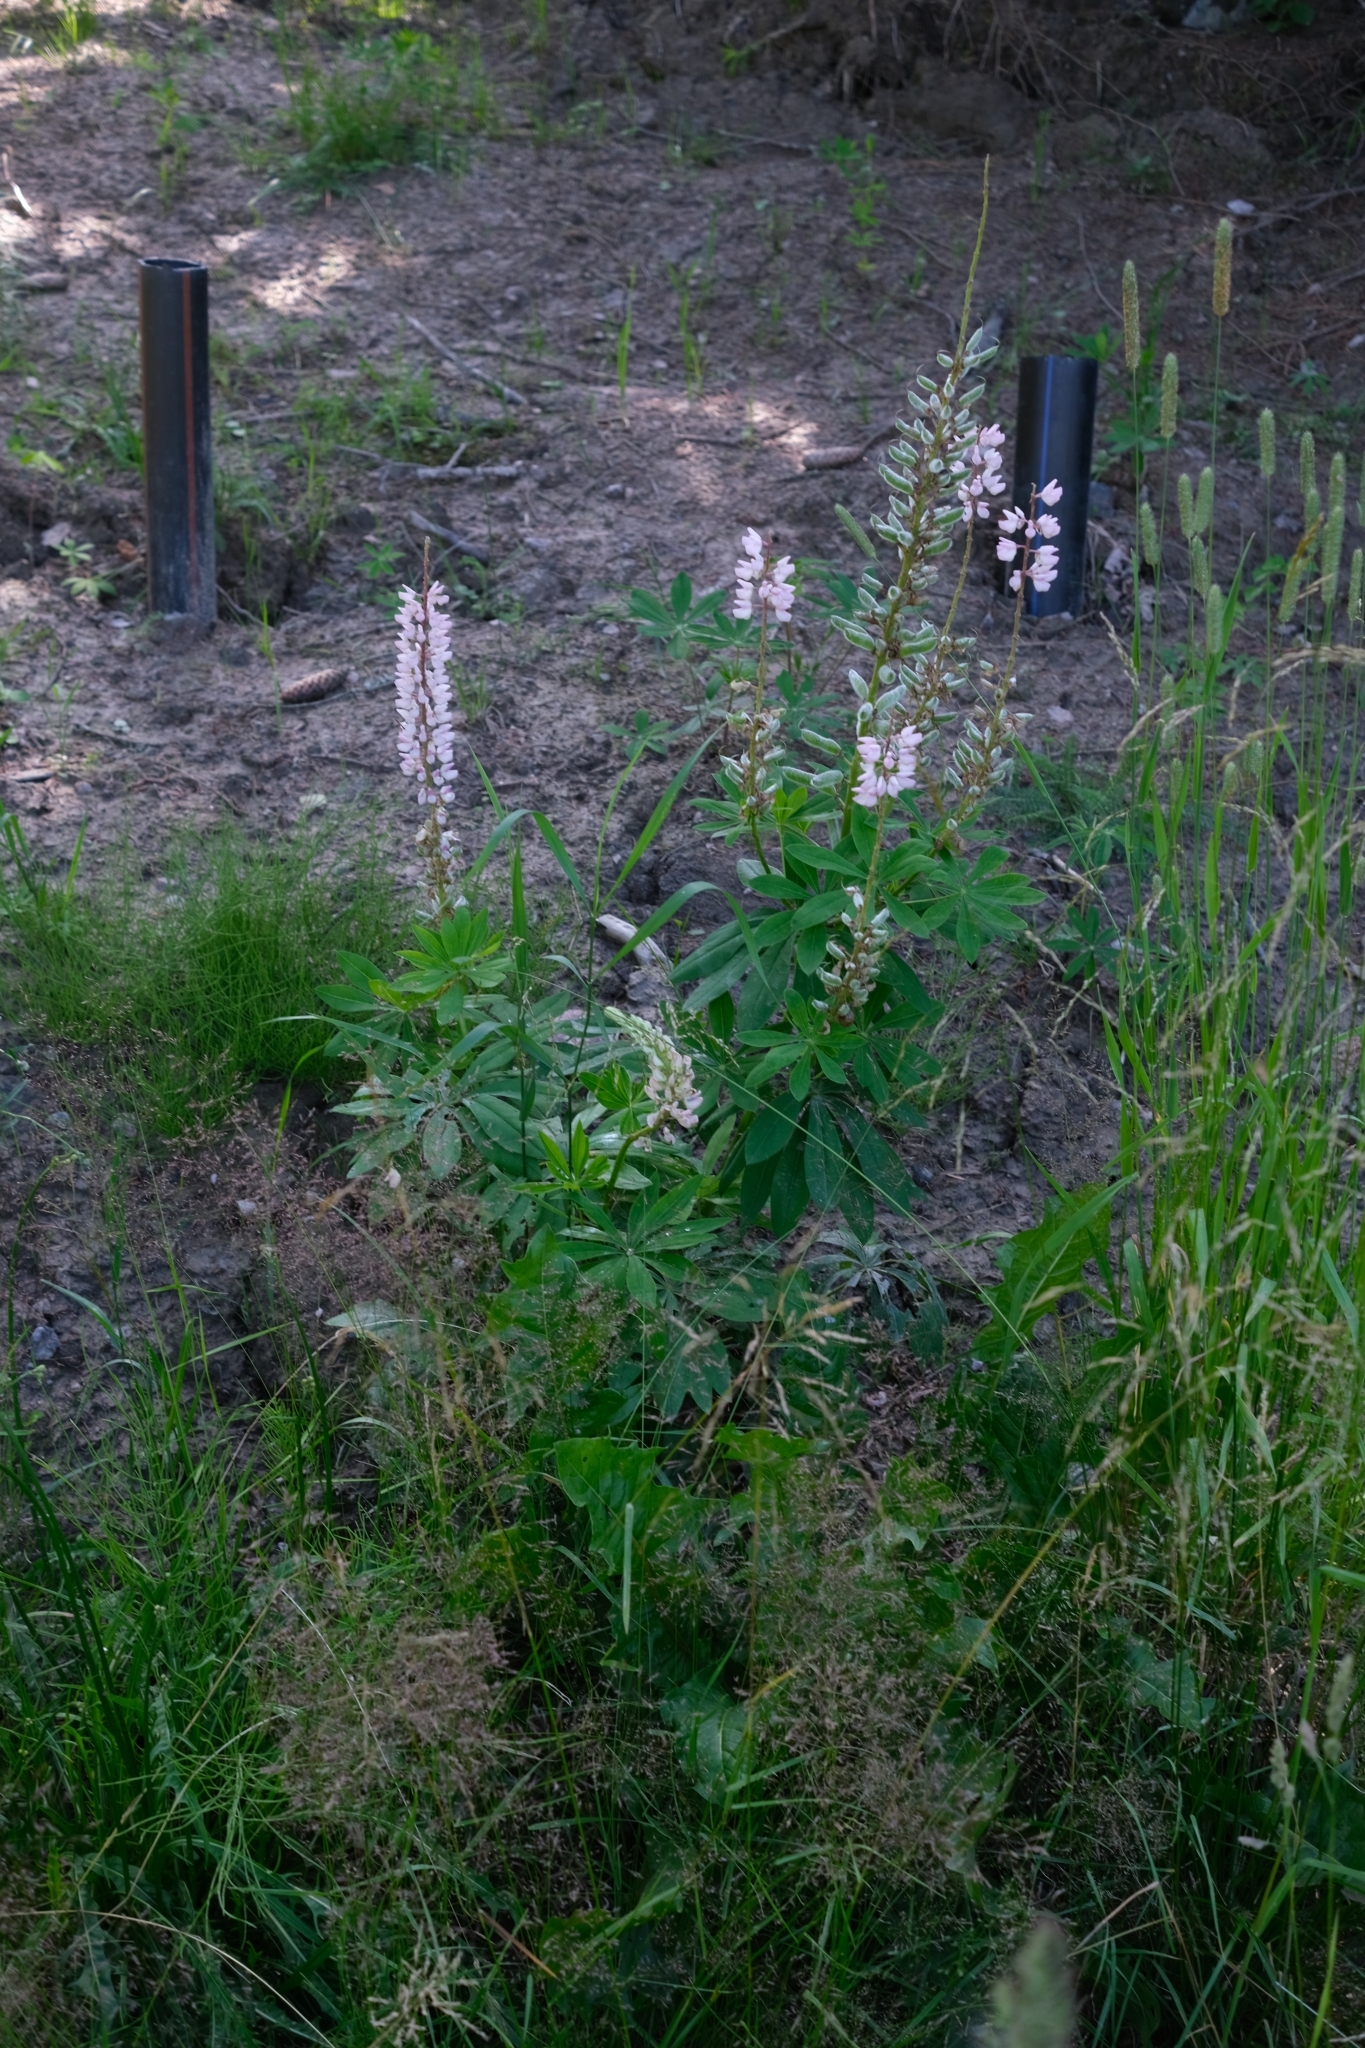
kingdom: Plantae
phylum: Tracheophyta
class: Magnoliopsida
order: Fabales
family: Fabaceae
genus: Lupinus
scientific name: Lupinus polyphyllus
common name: Garden lupin
